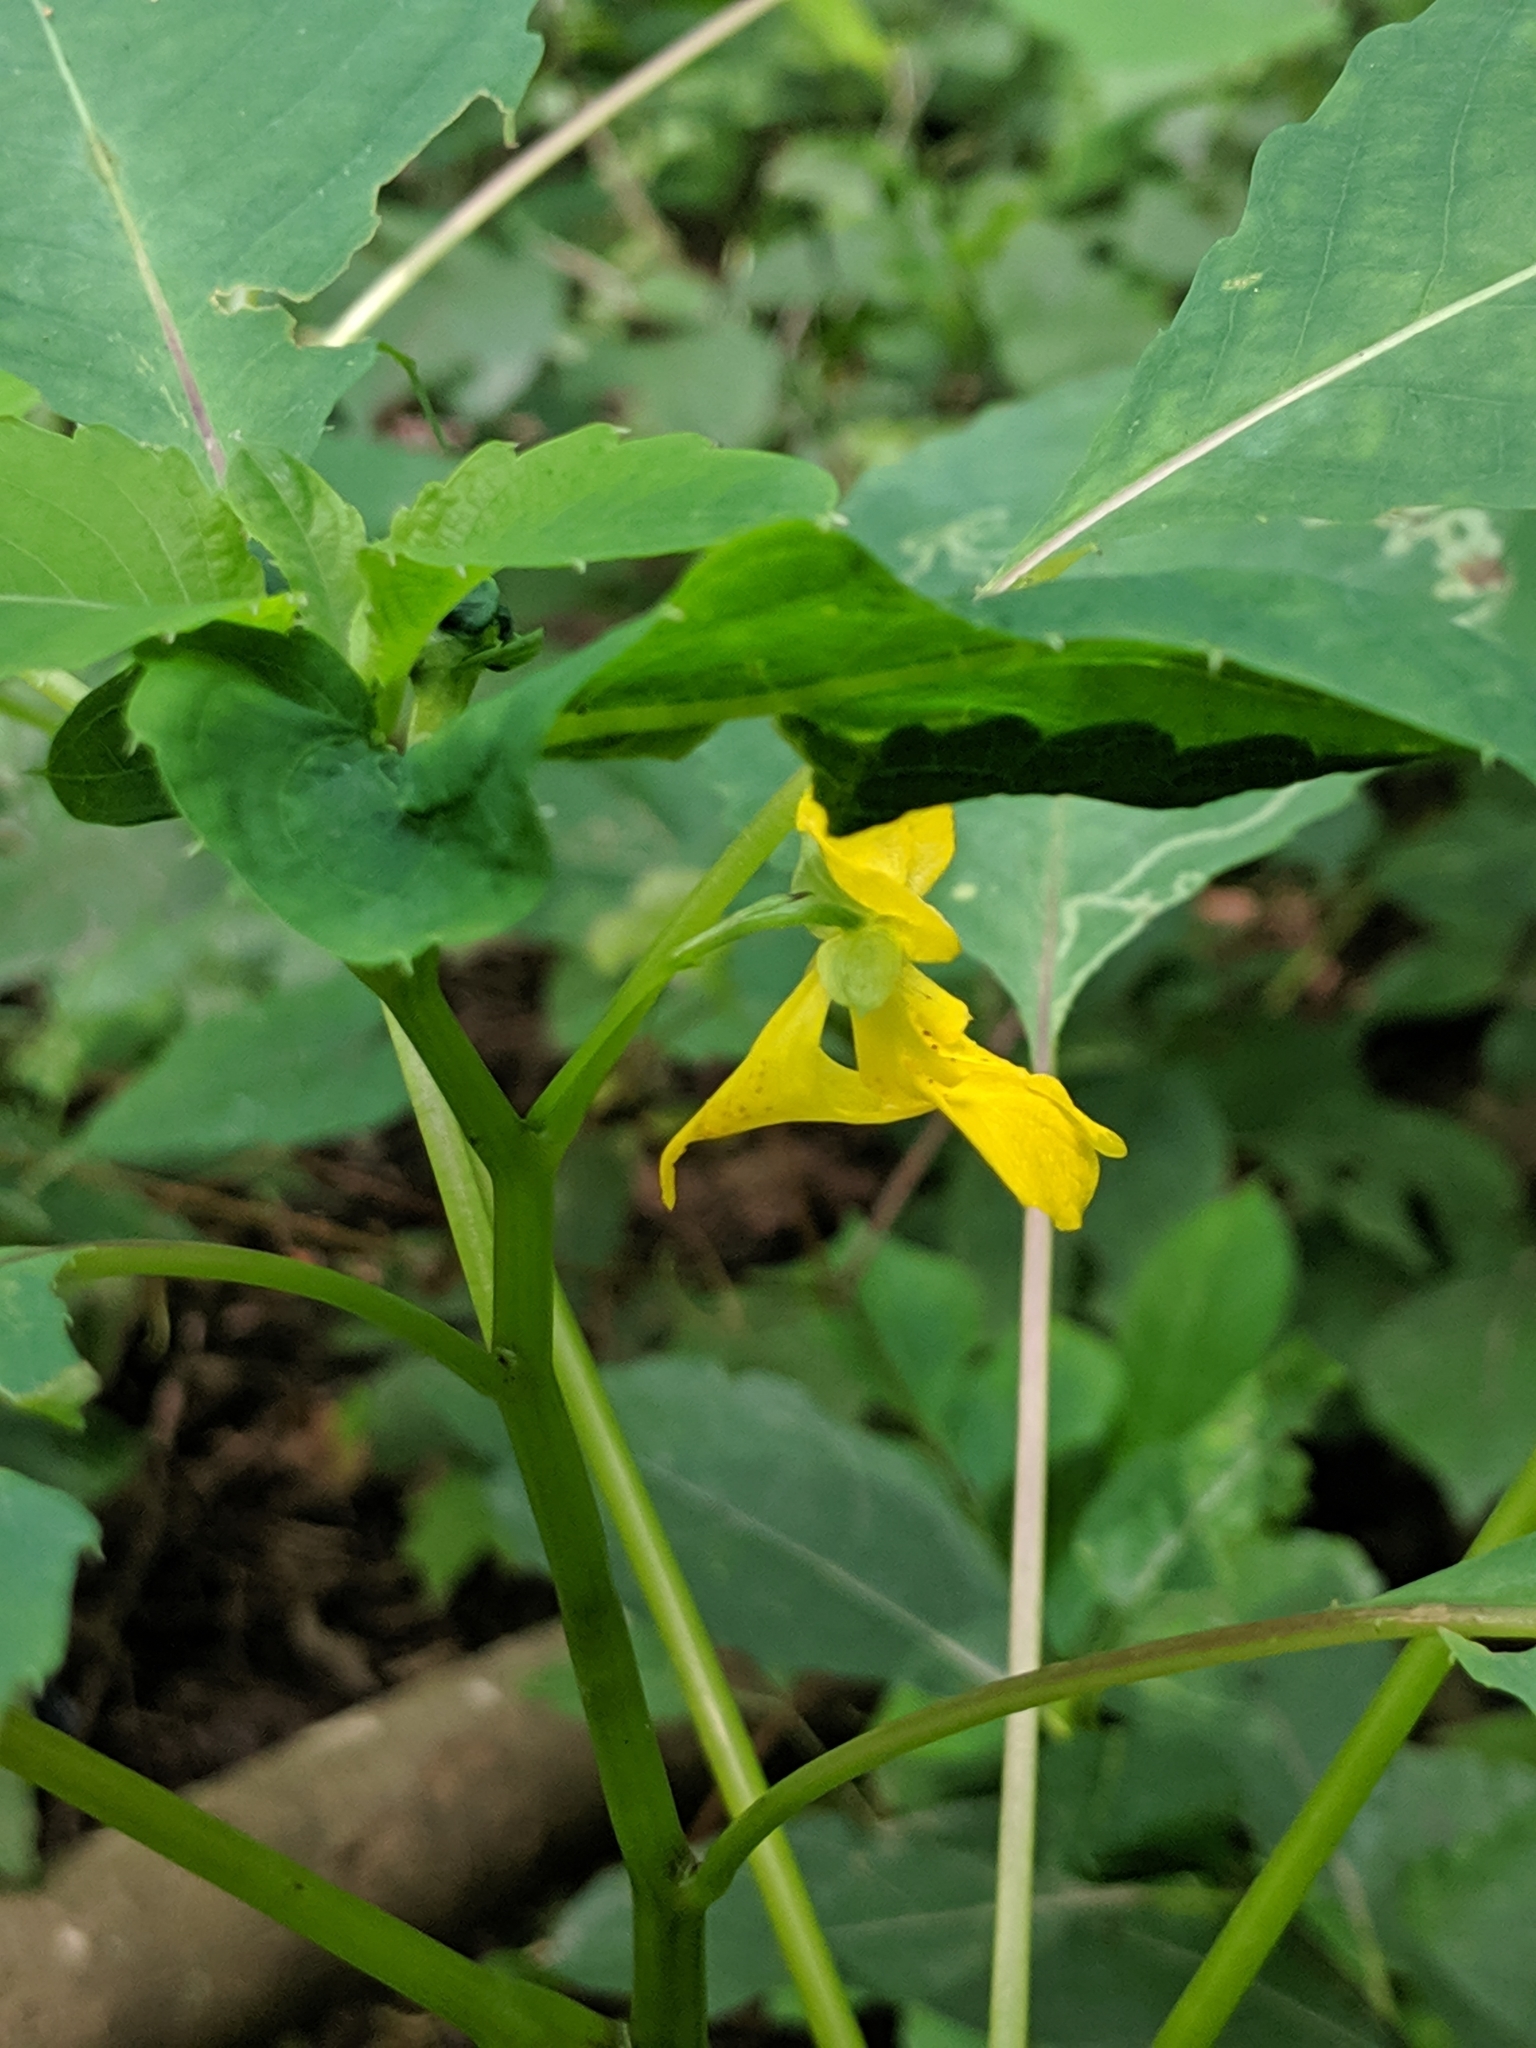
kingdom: Plantae
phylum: Tracheophyta
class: Magnoliopsida
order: Ericales
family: Balsaminaceae
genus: Impatiens
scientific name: Impatiens pallida
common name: Pale snapweed
